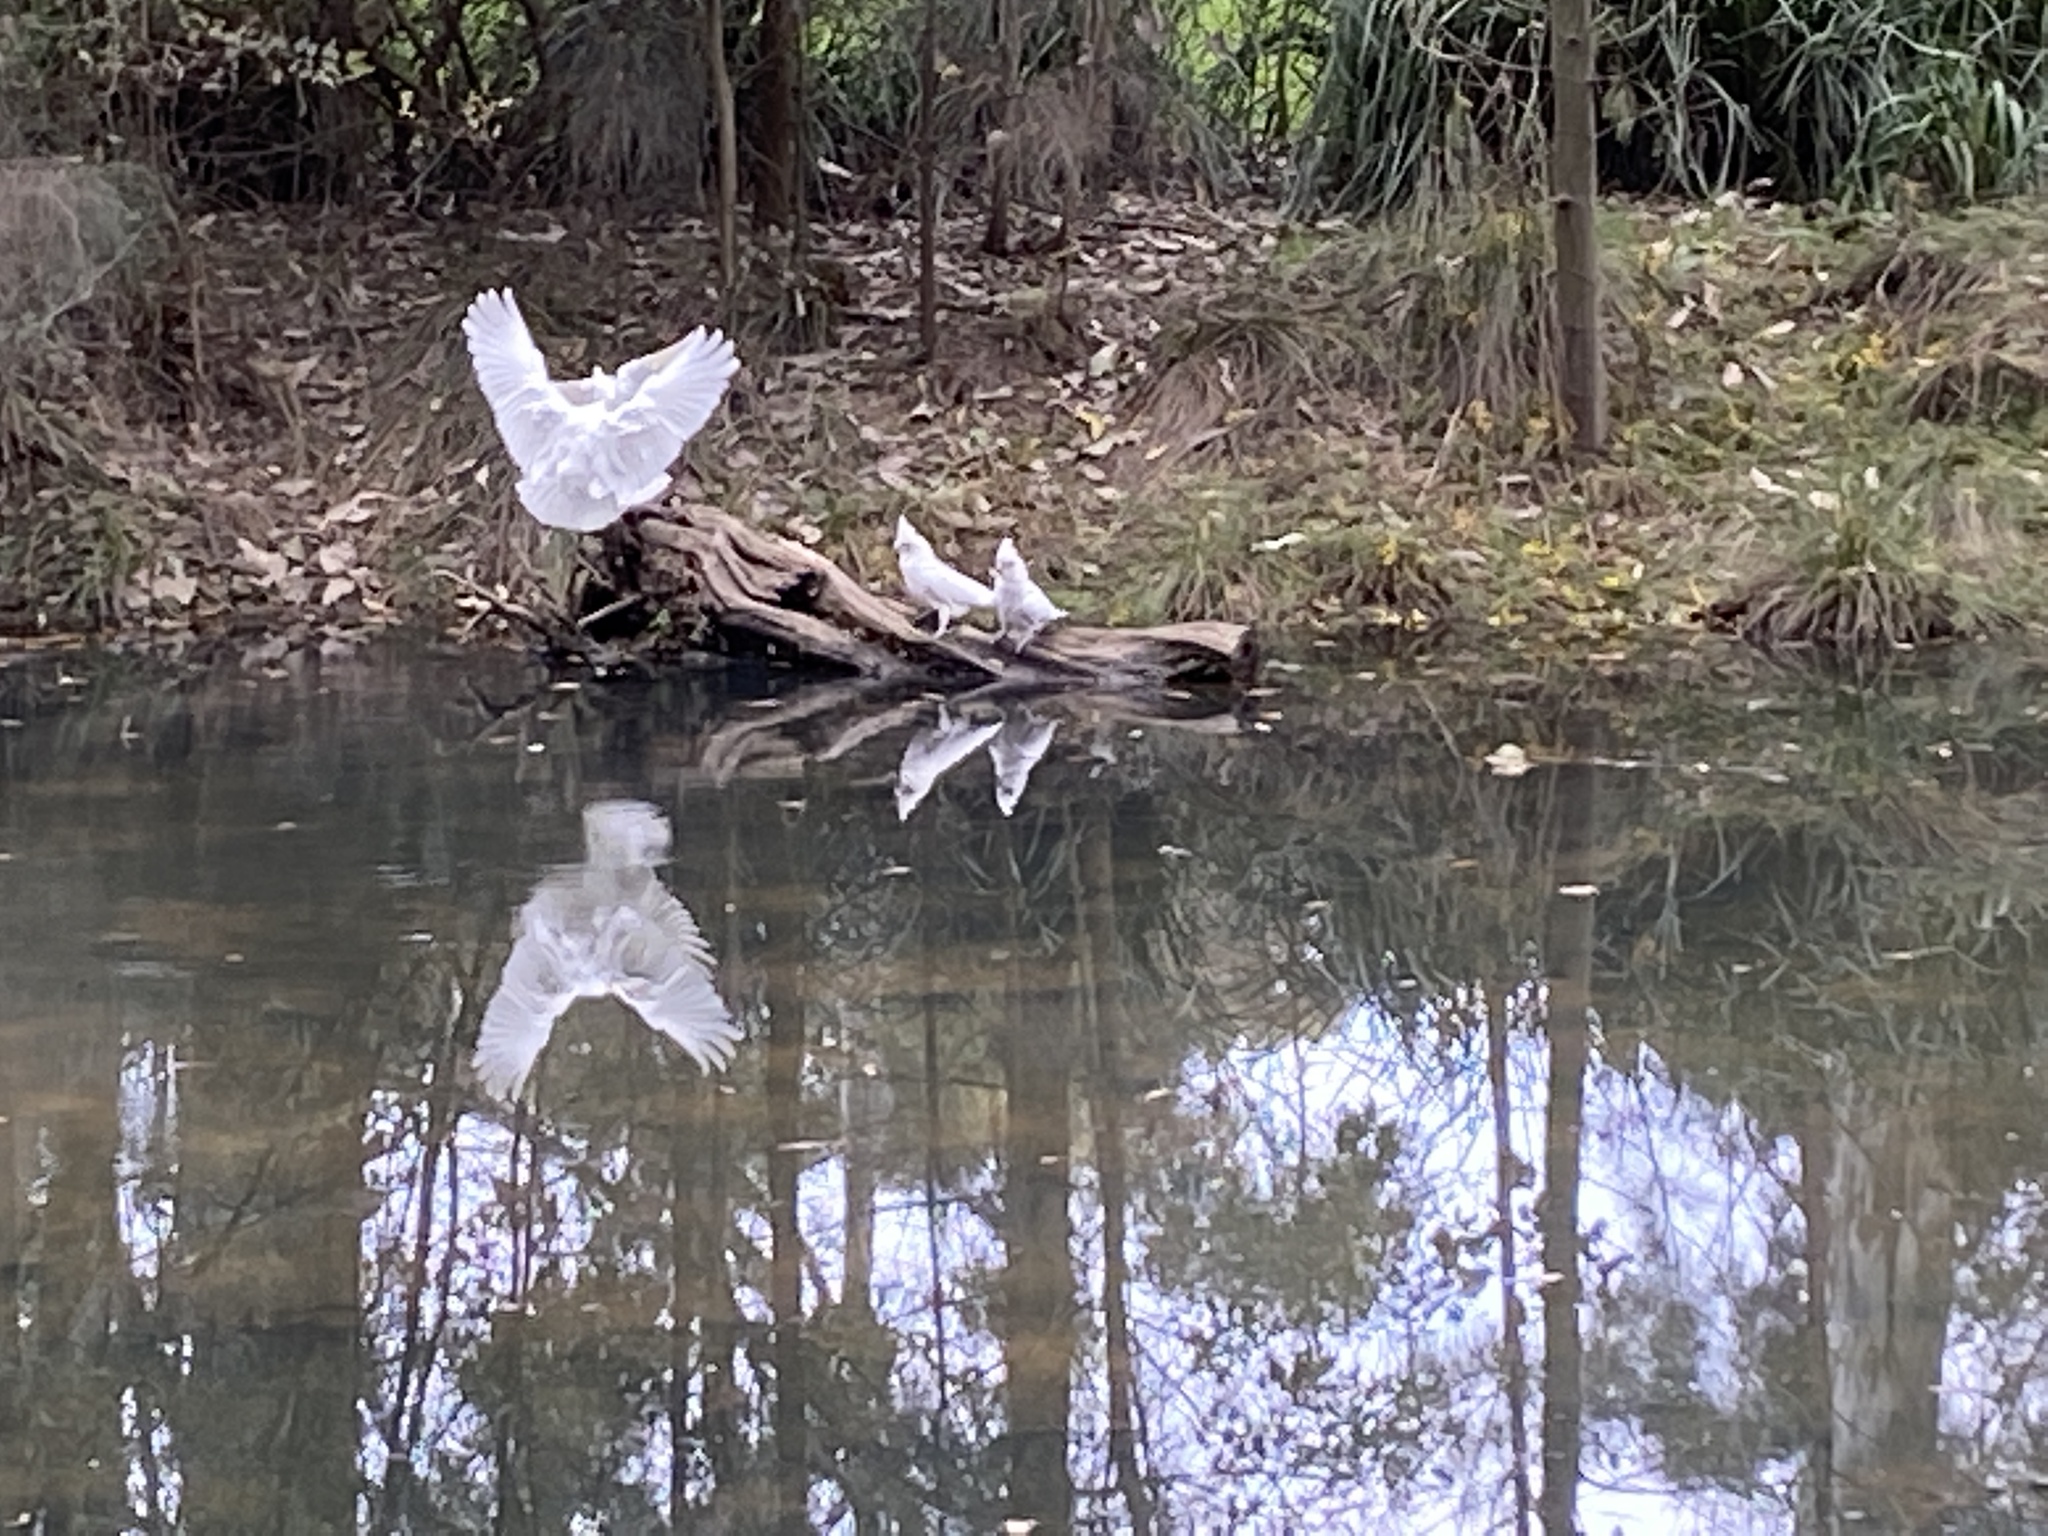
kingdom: Animalia
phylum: Chordata
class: Aves
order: Psittaciformes
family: Psittacidae
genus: Cacatua
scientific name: Cacatua sanguinea
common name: Little corella
